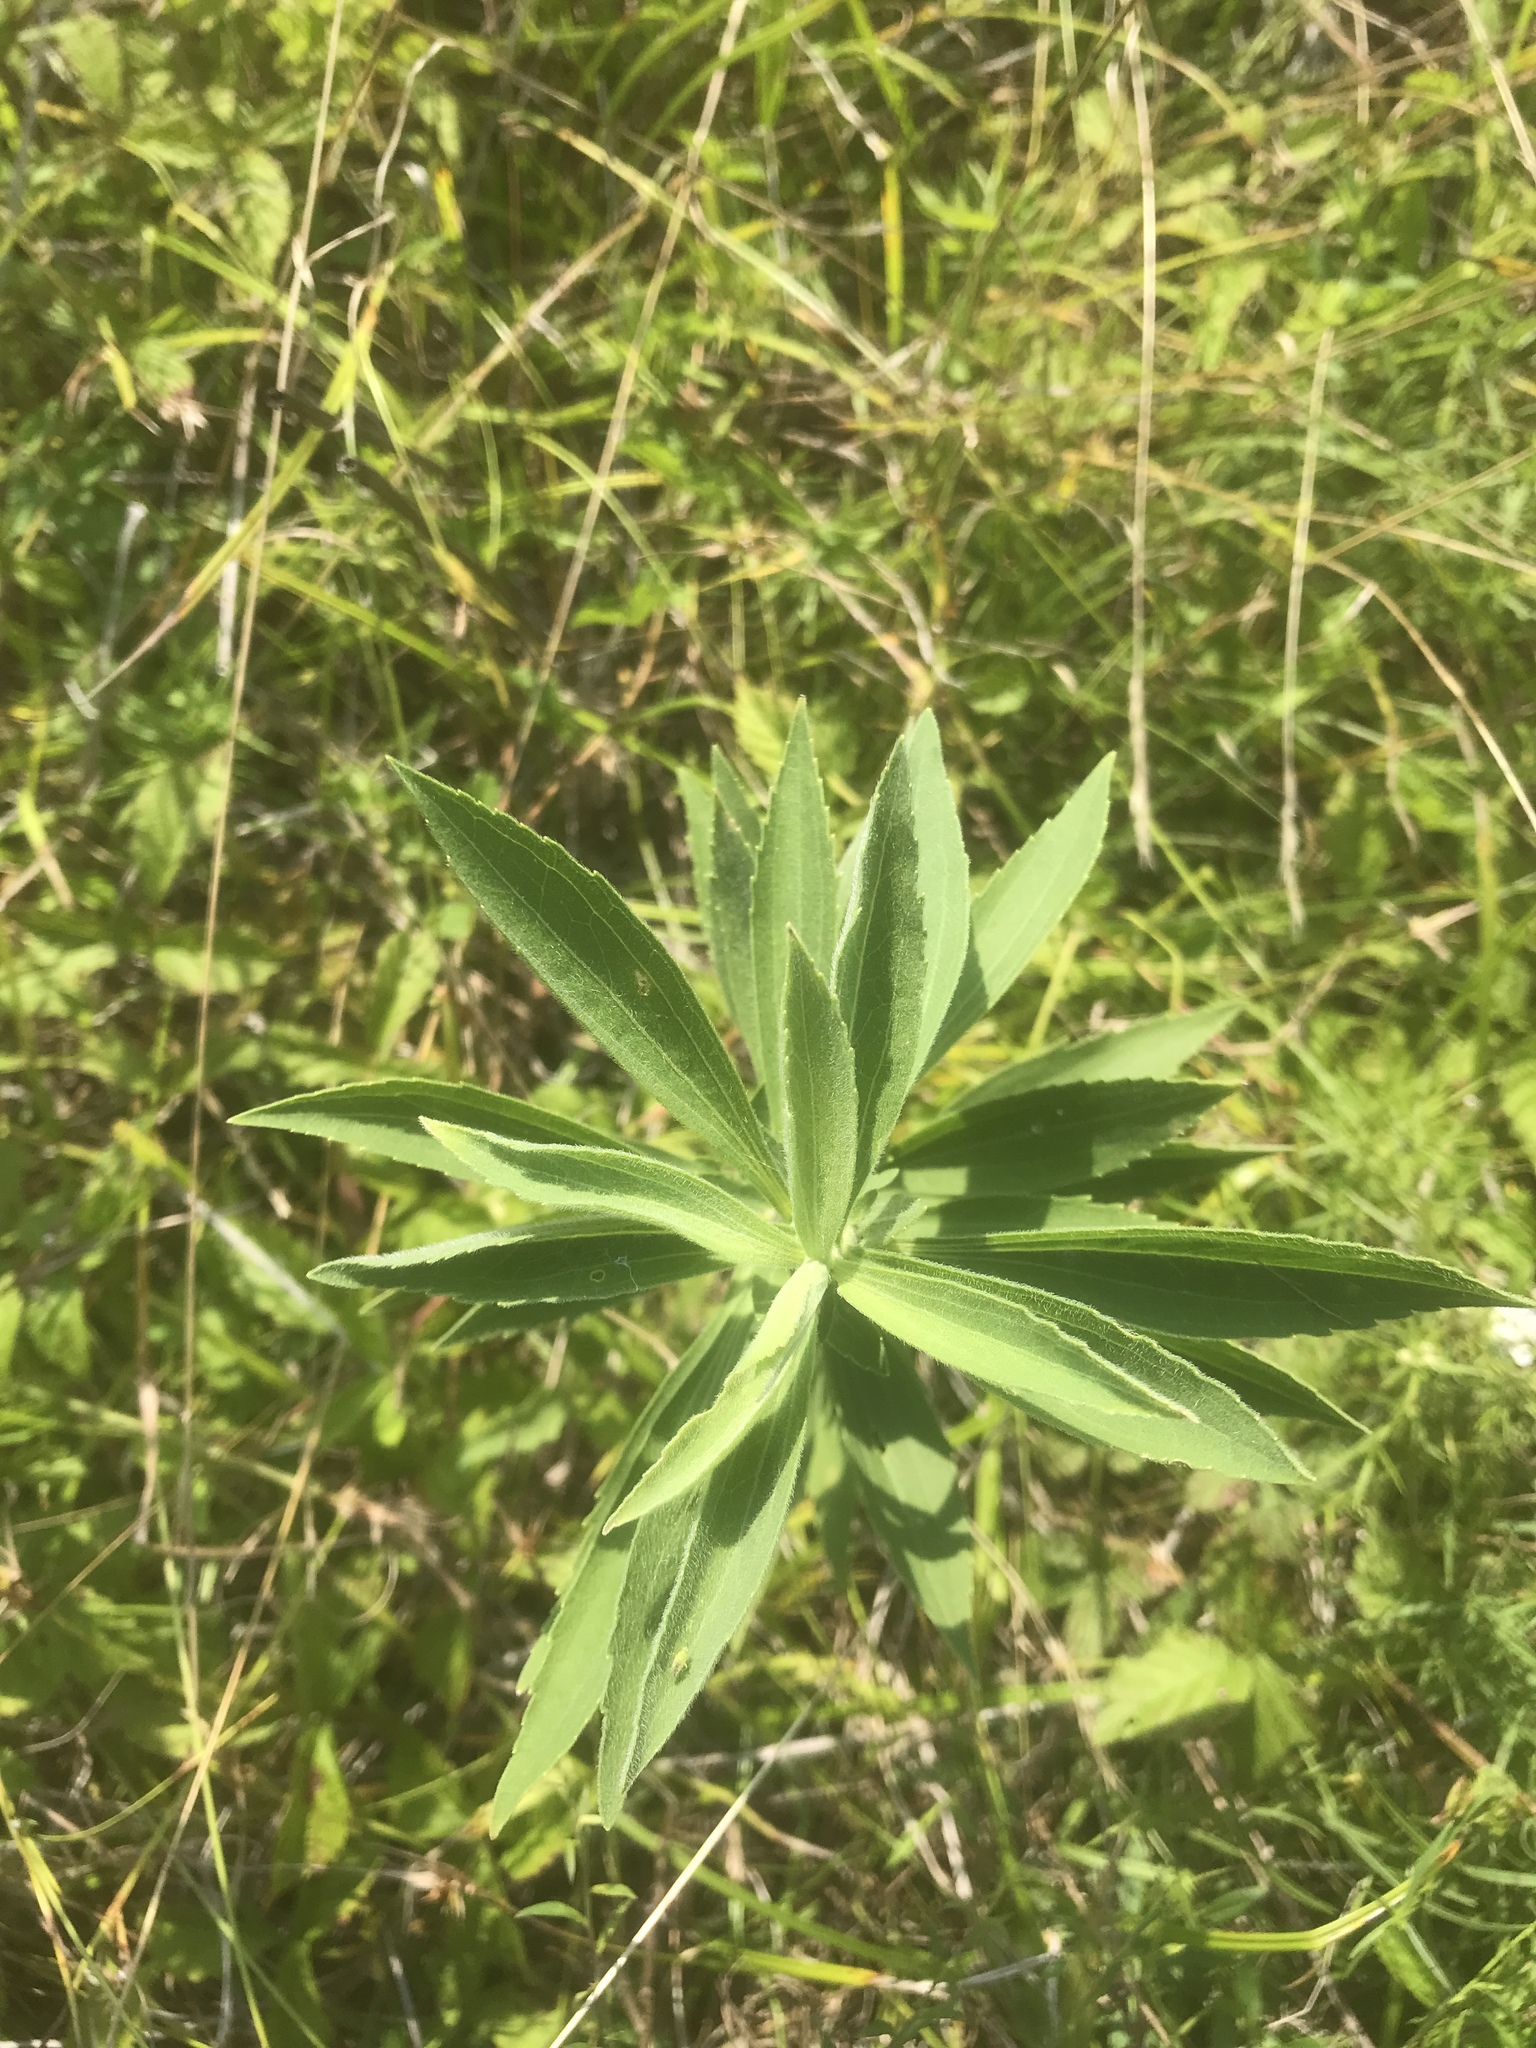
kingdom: Plantae
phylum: Tracheophyta
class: Magnoliopsida
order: Asterales
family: Asteraceae
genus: Eupatorium
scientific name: Eupatorium altissimum
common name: Tall thoroughwort
